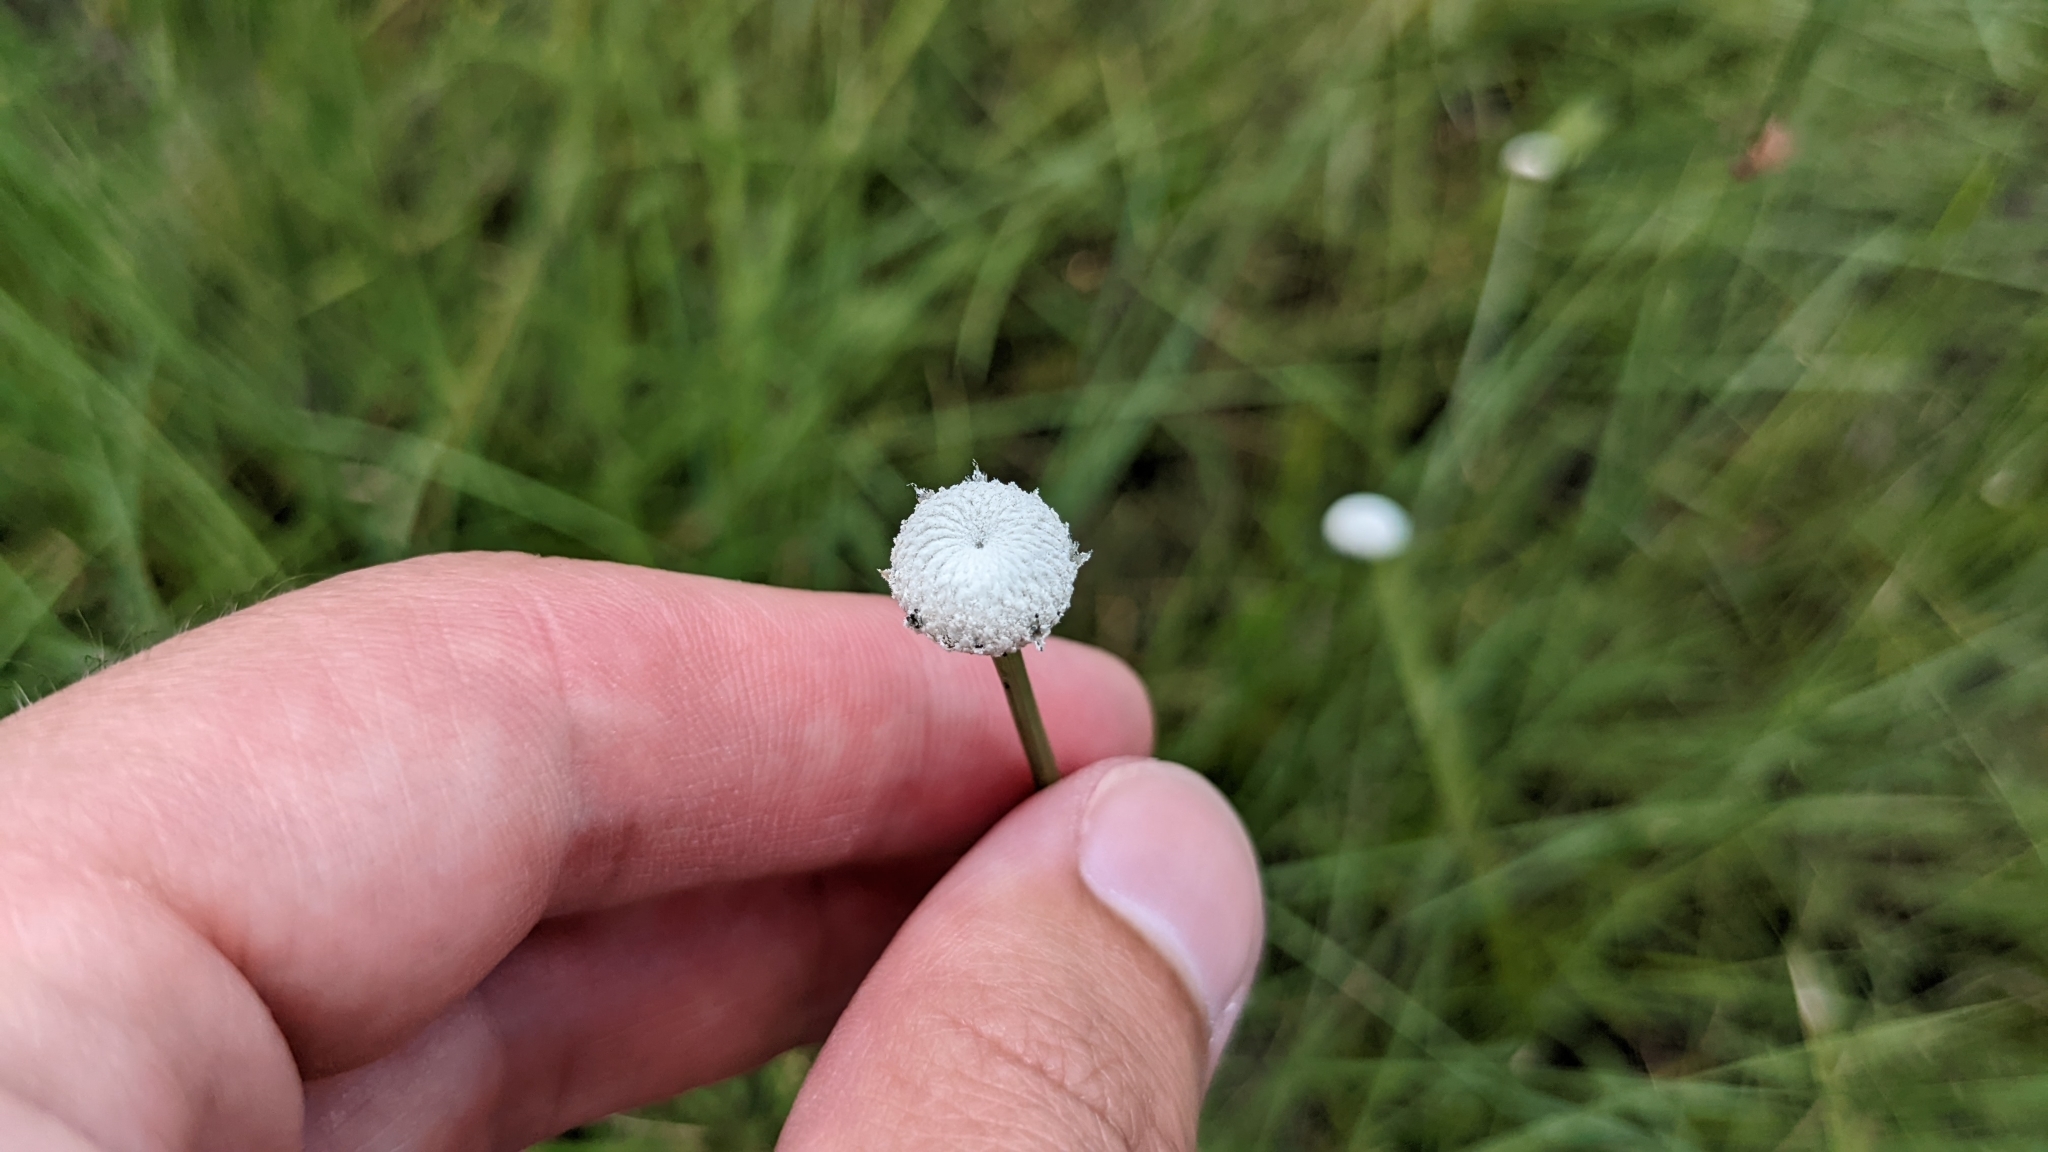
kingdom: Plantae
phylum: Tracheophyta
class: Liliopsida
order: Poales
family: Eriocaulaceae
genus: Eriocaulon
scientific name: Eriocaulon decangulare
